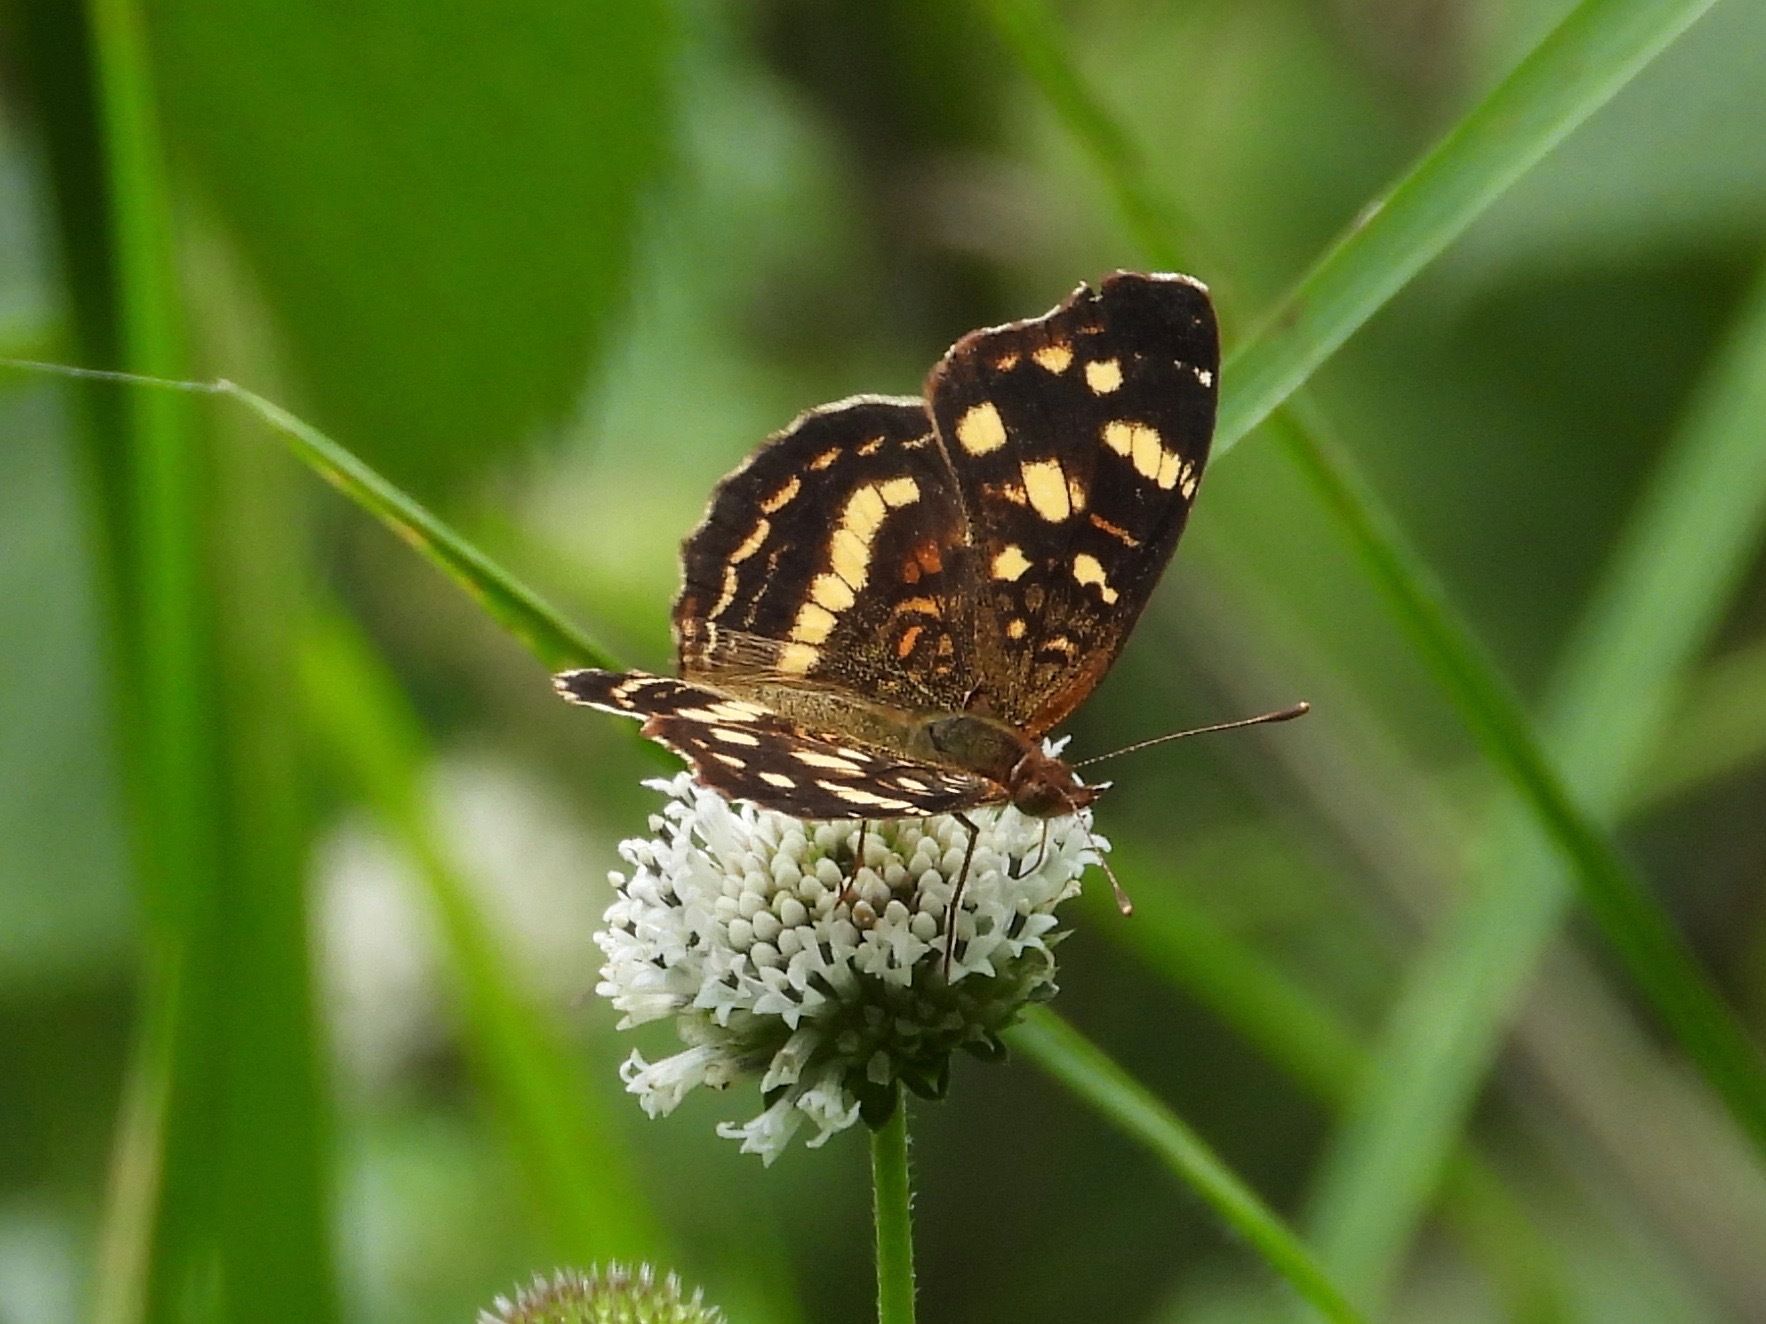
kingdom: Animalia
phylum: Arthropoda
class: Insecta
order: Lepidoptera
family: Nymphalidae
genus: Anthanassa
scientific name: Anthanassa drusilla
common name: Orange-patched crescent
